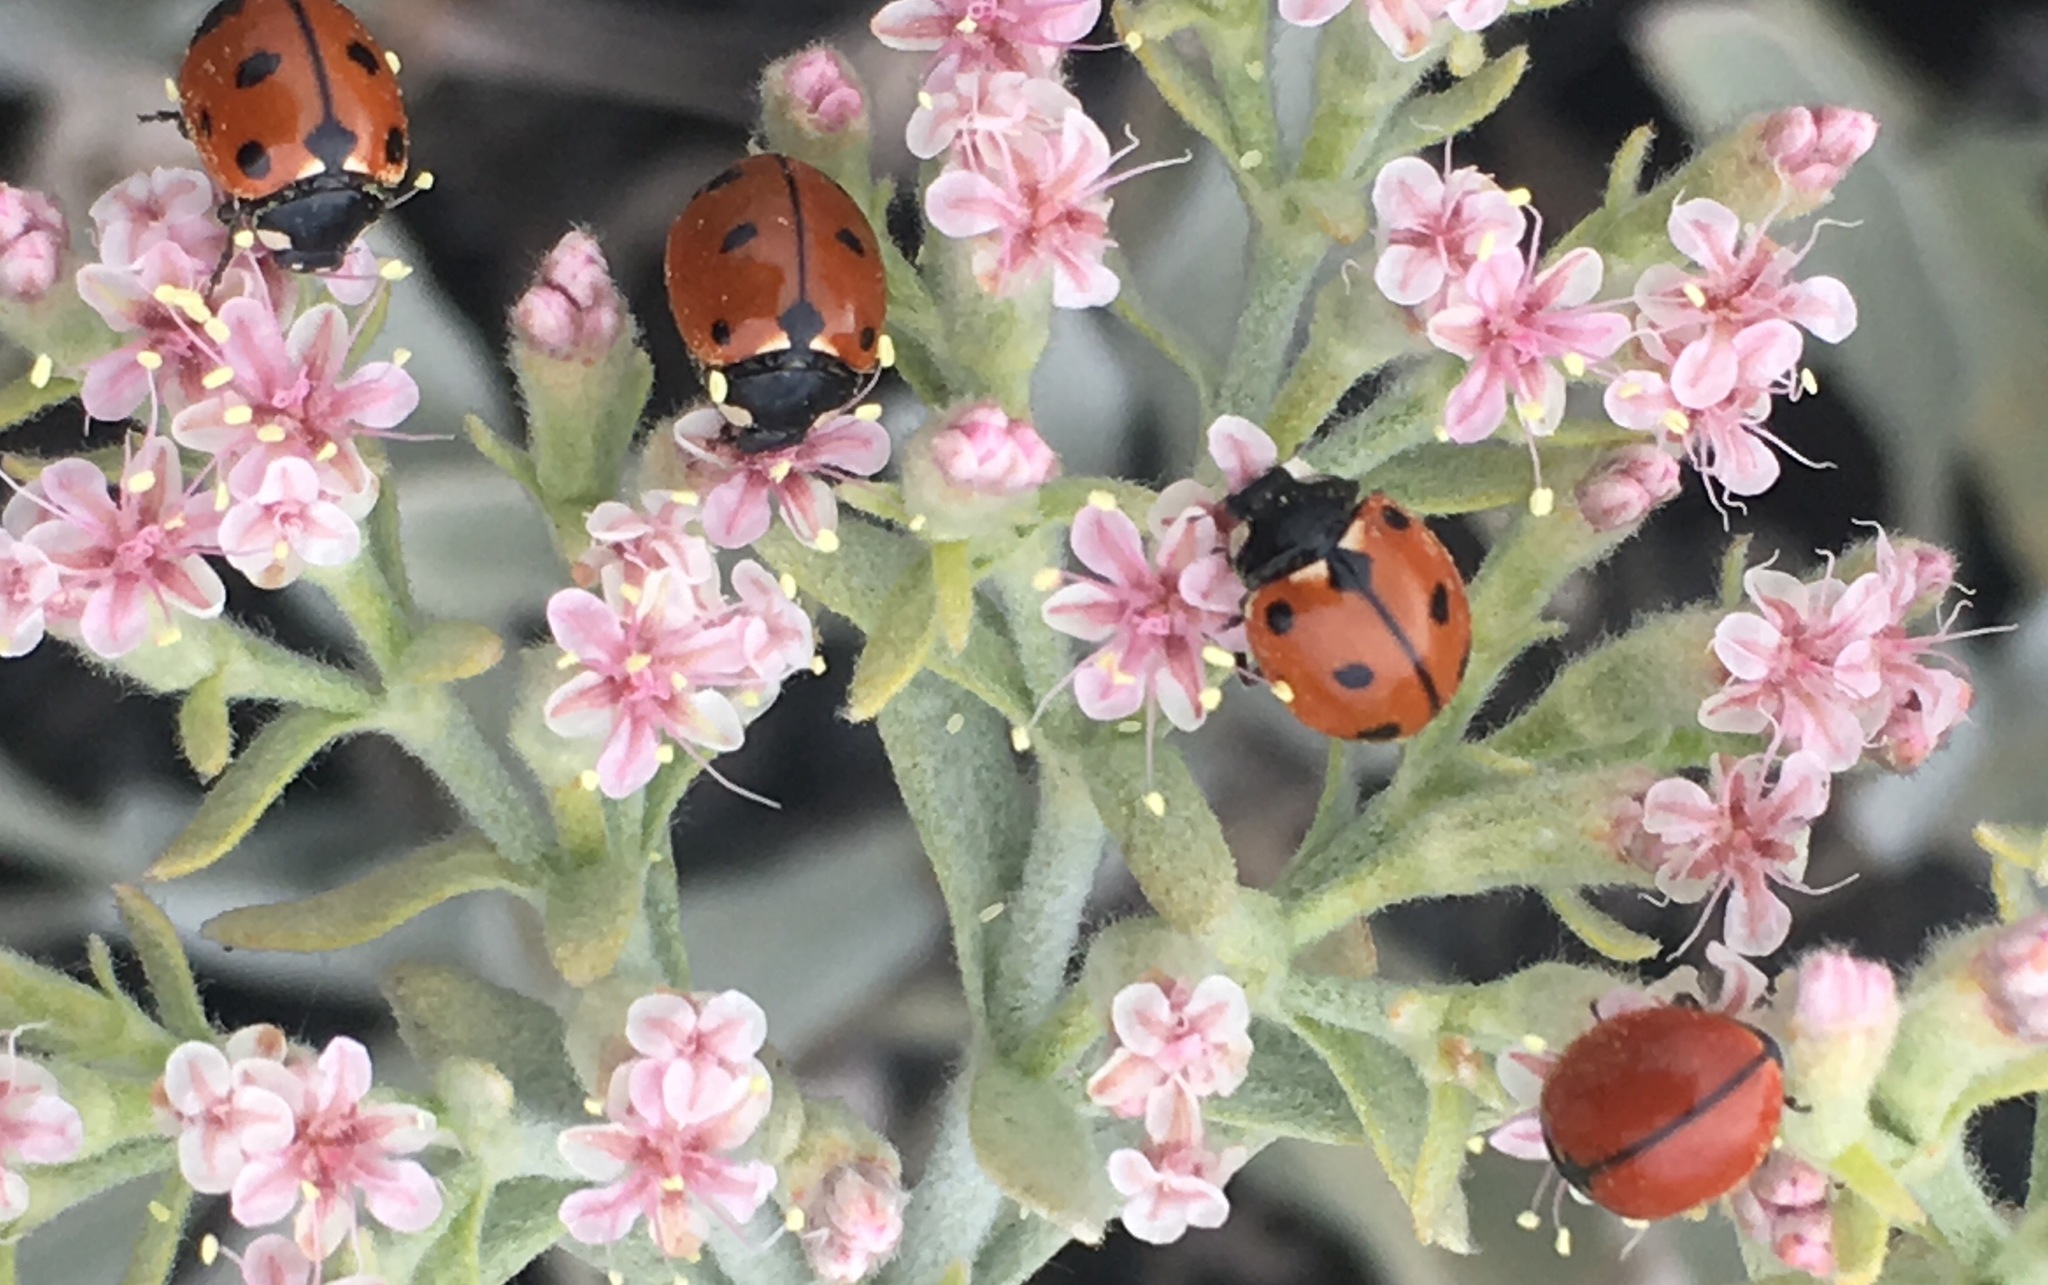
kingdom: Animalia
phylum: Arthropoda
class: Insecta
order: Coleoptera
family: Coccinellidae
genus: Coccinella
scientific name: Coccinella californica
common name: Lady beetle
